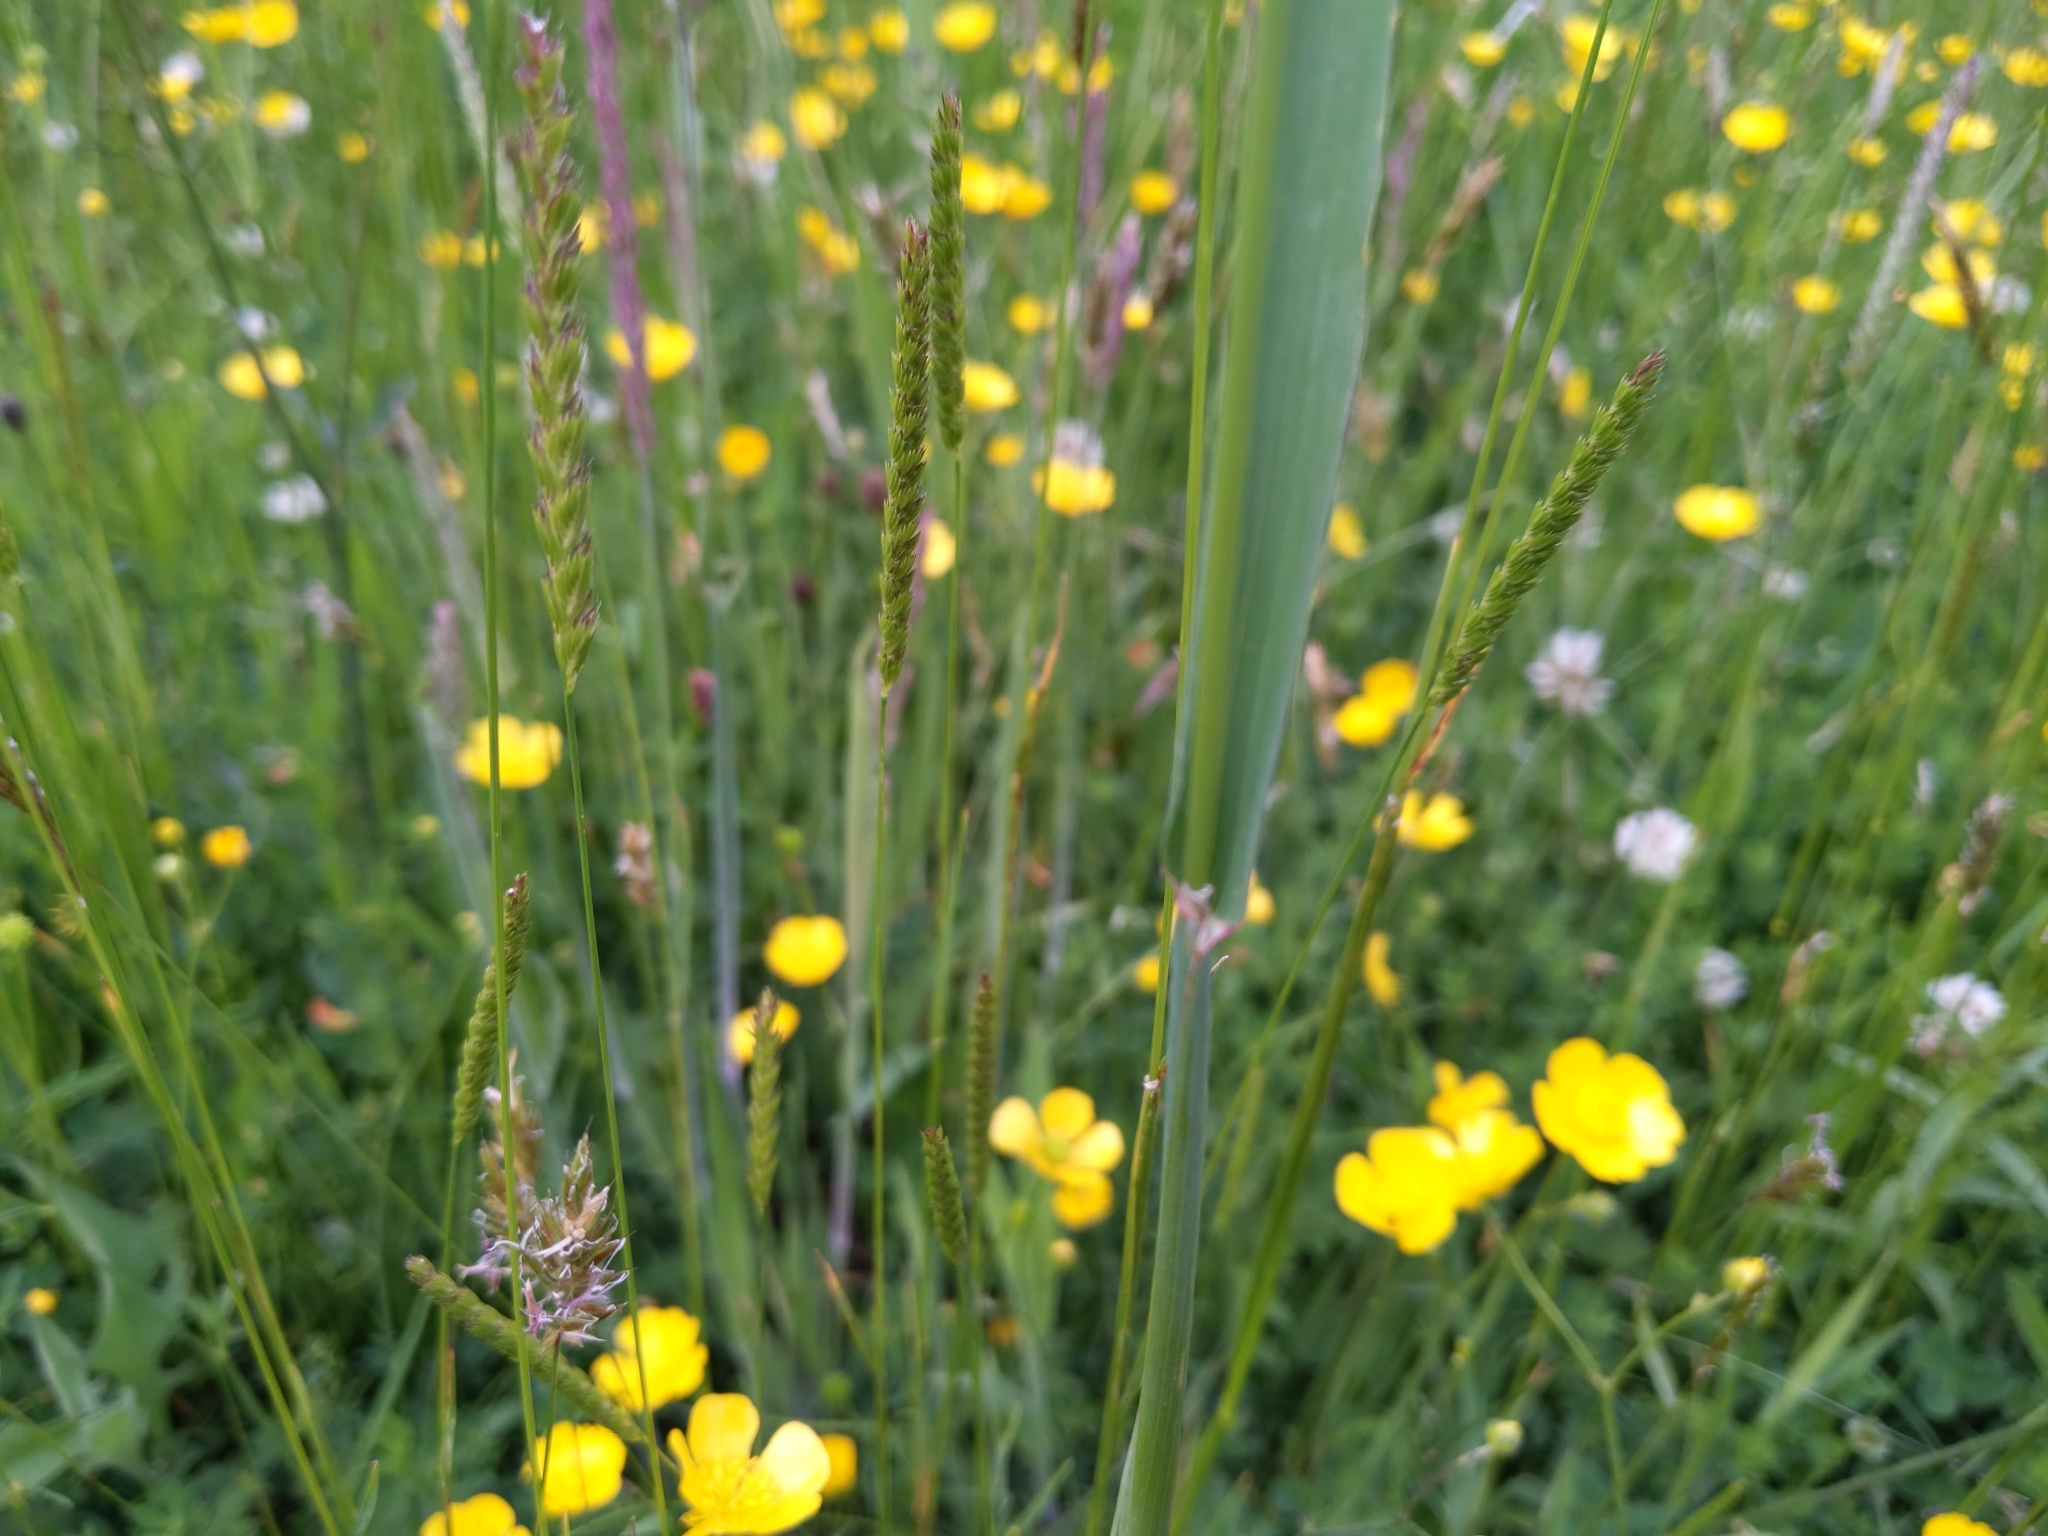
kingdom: Plantae
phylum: Tracheophyta
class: Liliopsida
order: Poales
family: Poaceae
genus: Phleum
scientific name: Phleum pratense
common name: Timothy grass
